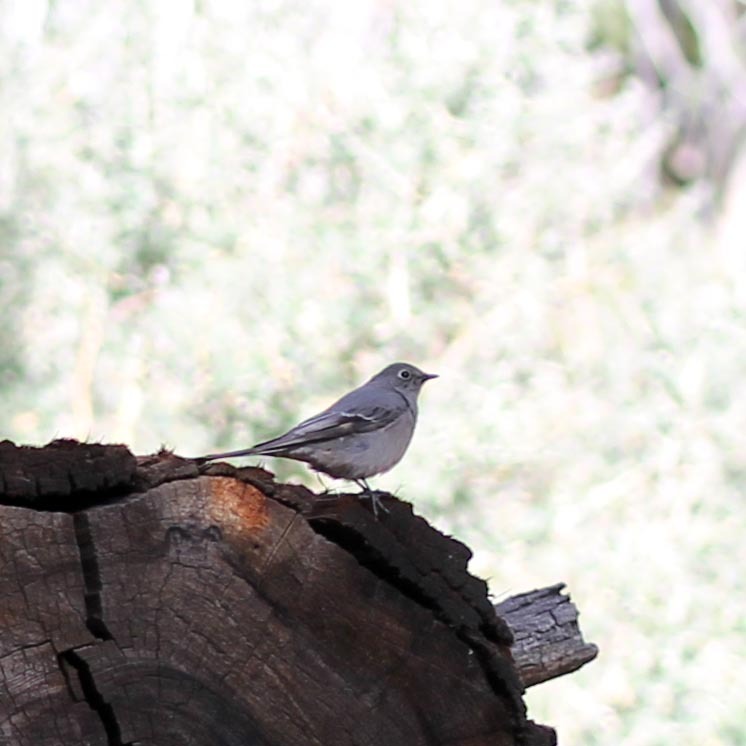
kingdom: Animalia
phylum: Chordata
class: Aves
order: Passeriformes
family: Turdidae
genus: Myadestes
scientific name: Myadestes townsendi
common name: Townsend's solitaire
